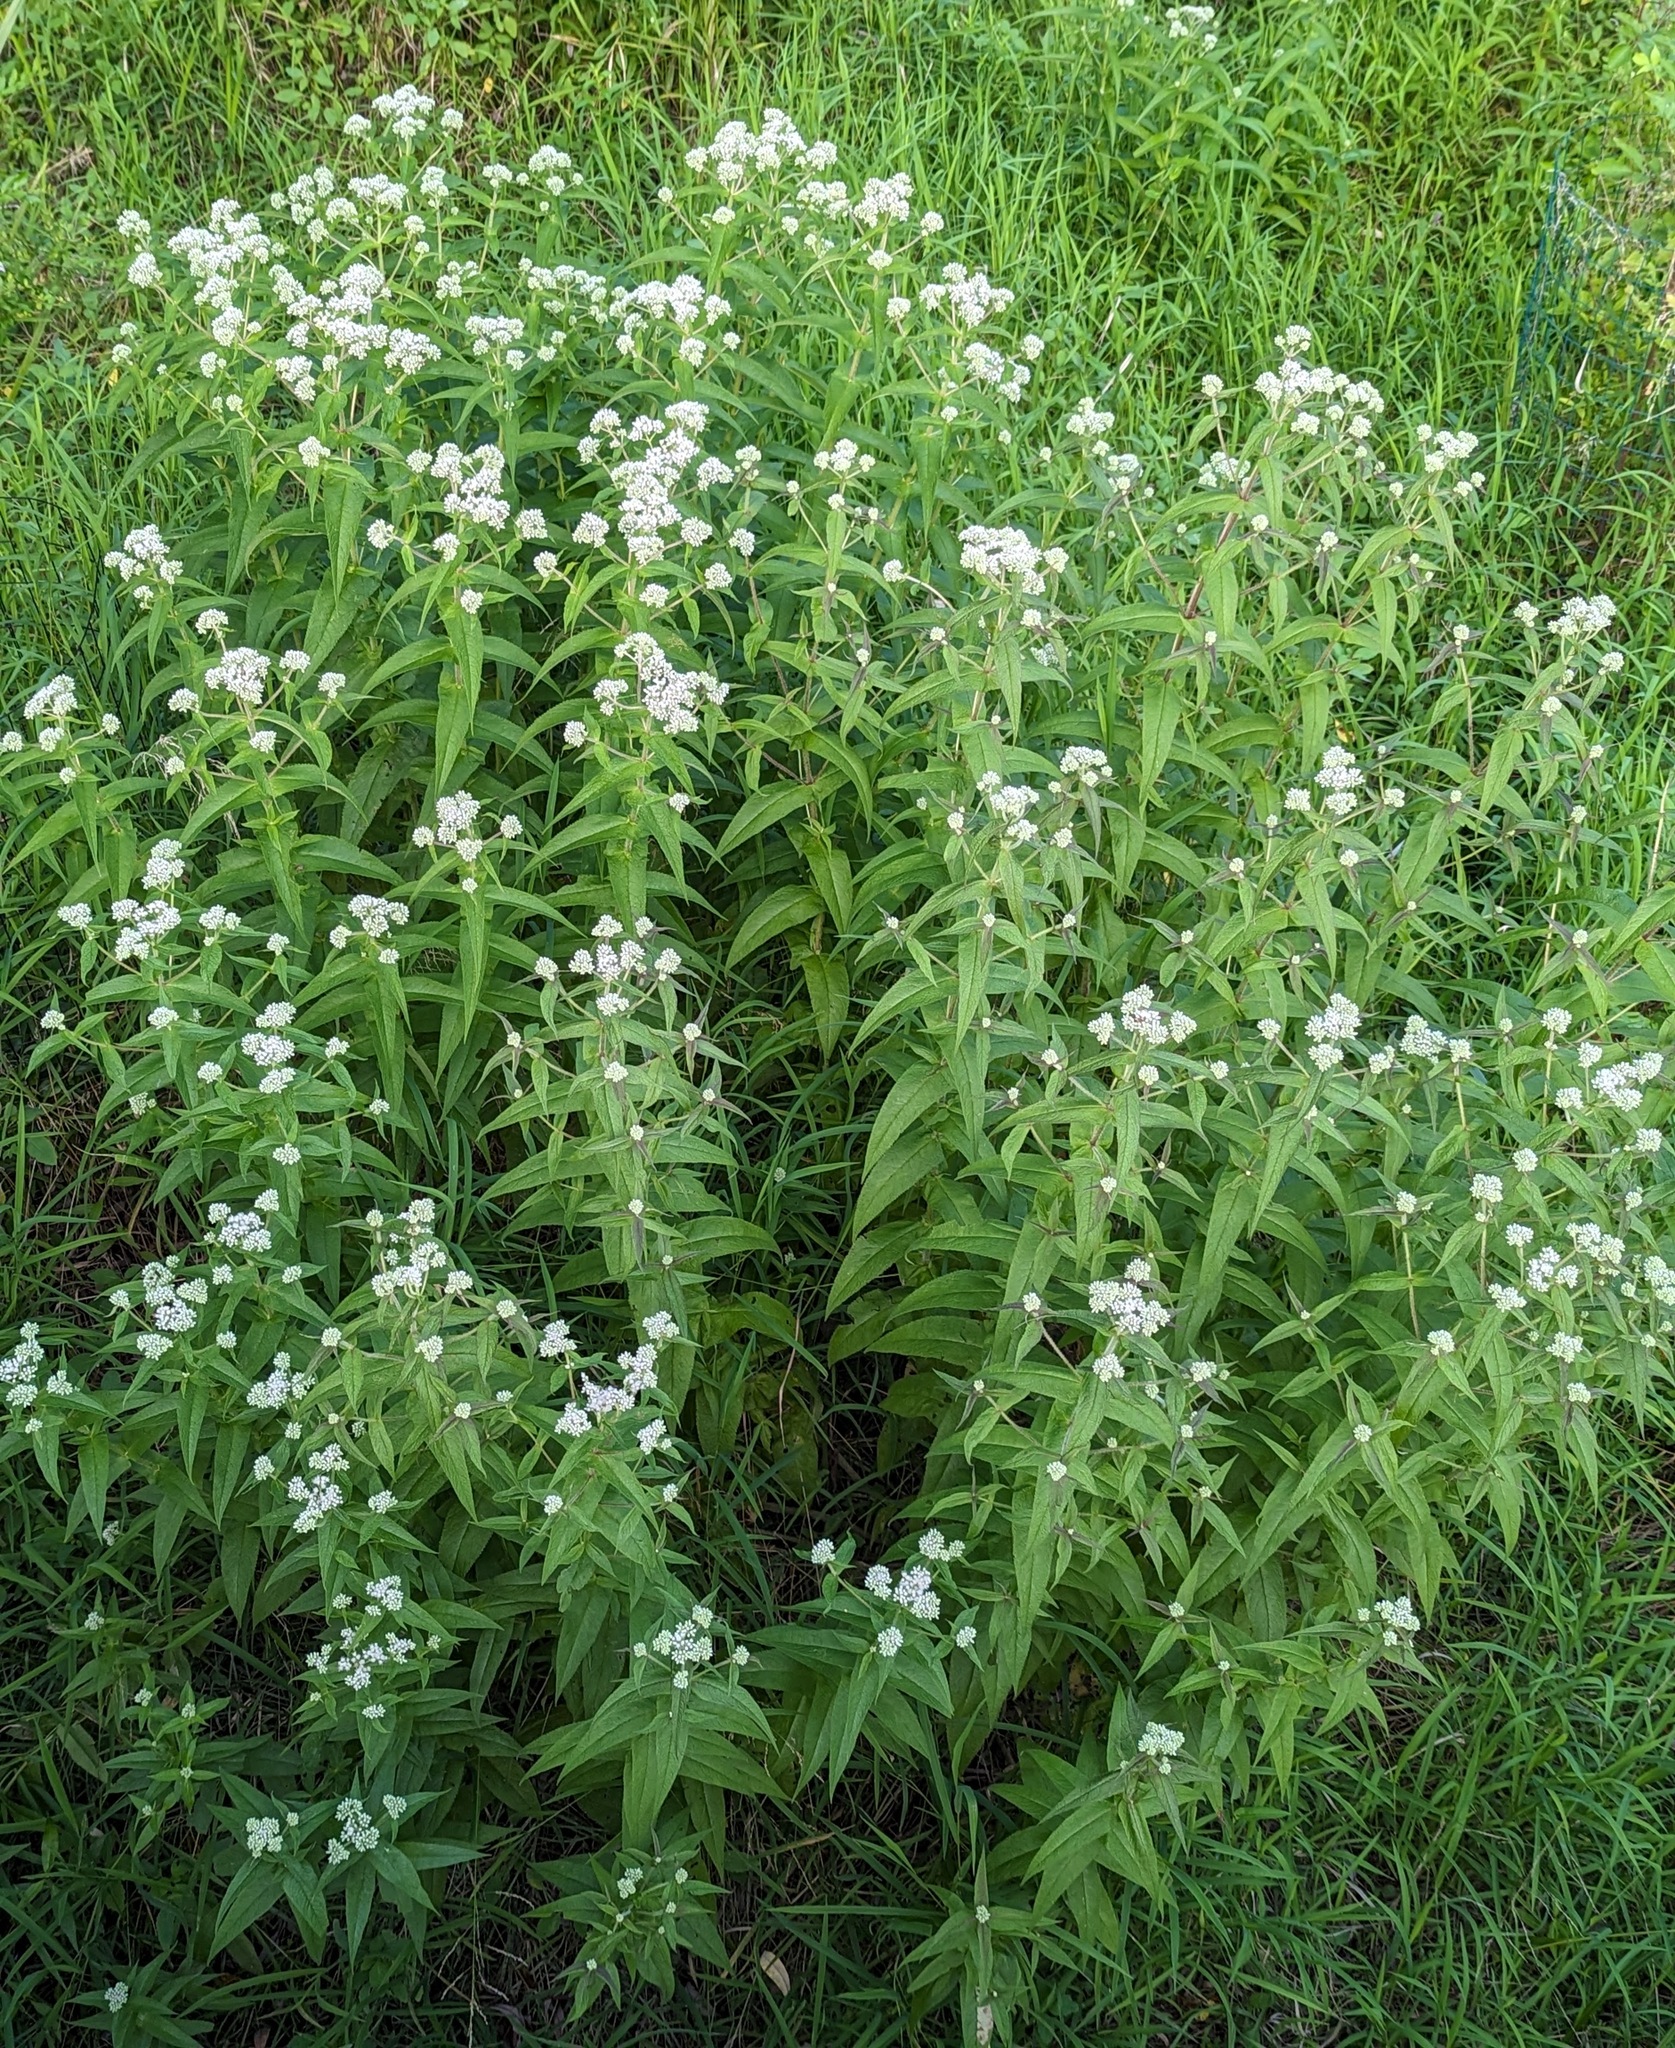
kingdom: Plantae
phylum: Tracheophyta
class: Magnoliopsida
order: Asterales
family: Asteraceae
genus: Eupatorium
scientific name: Eupatorium perfoliatum
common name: Boneset
